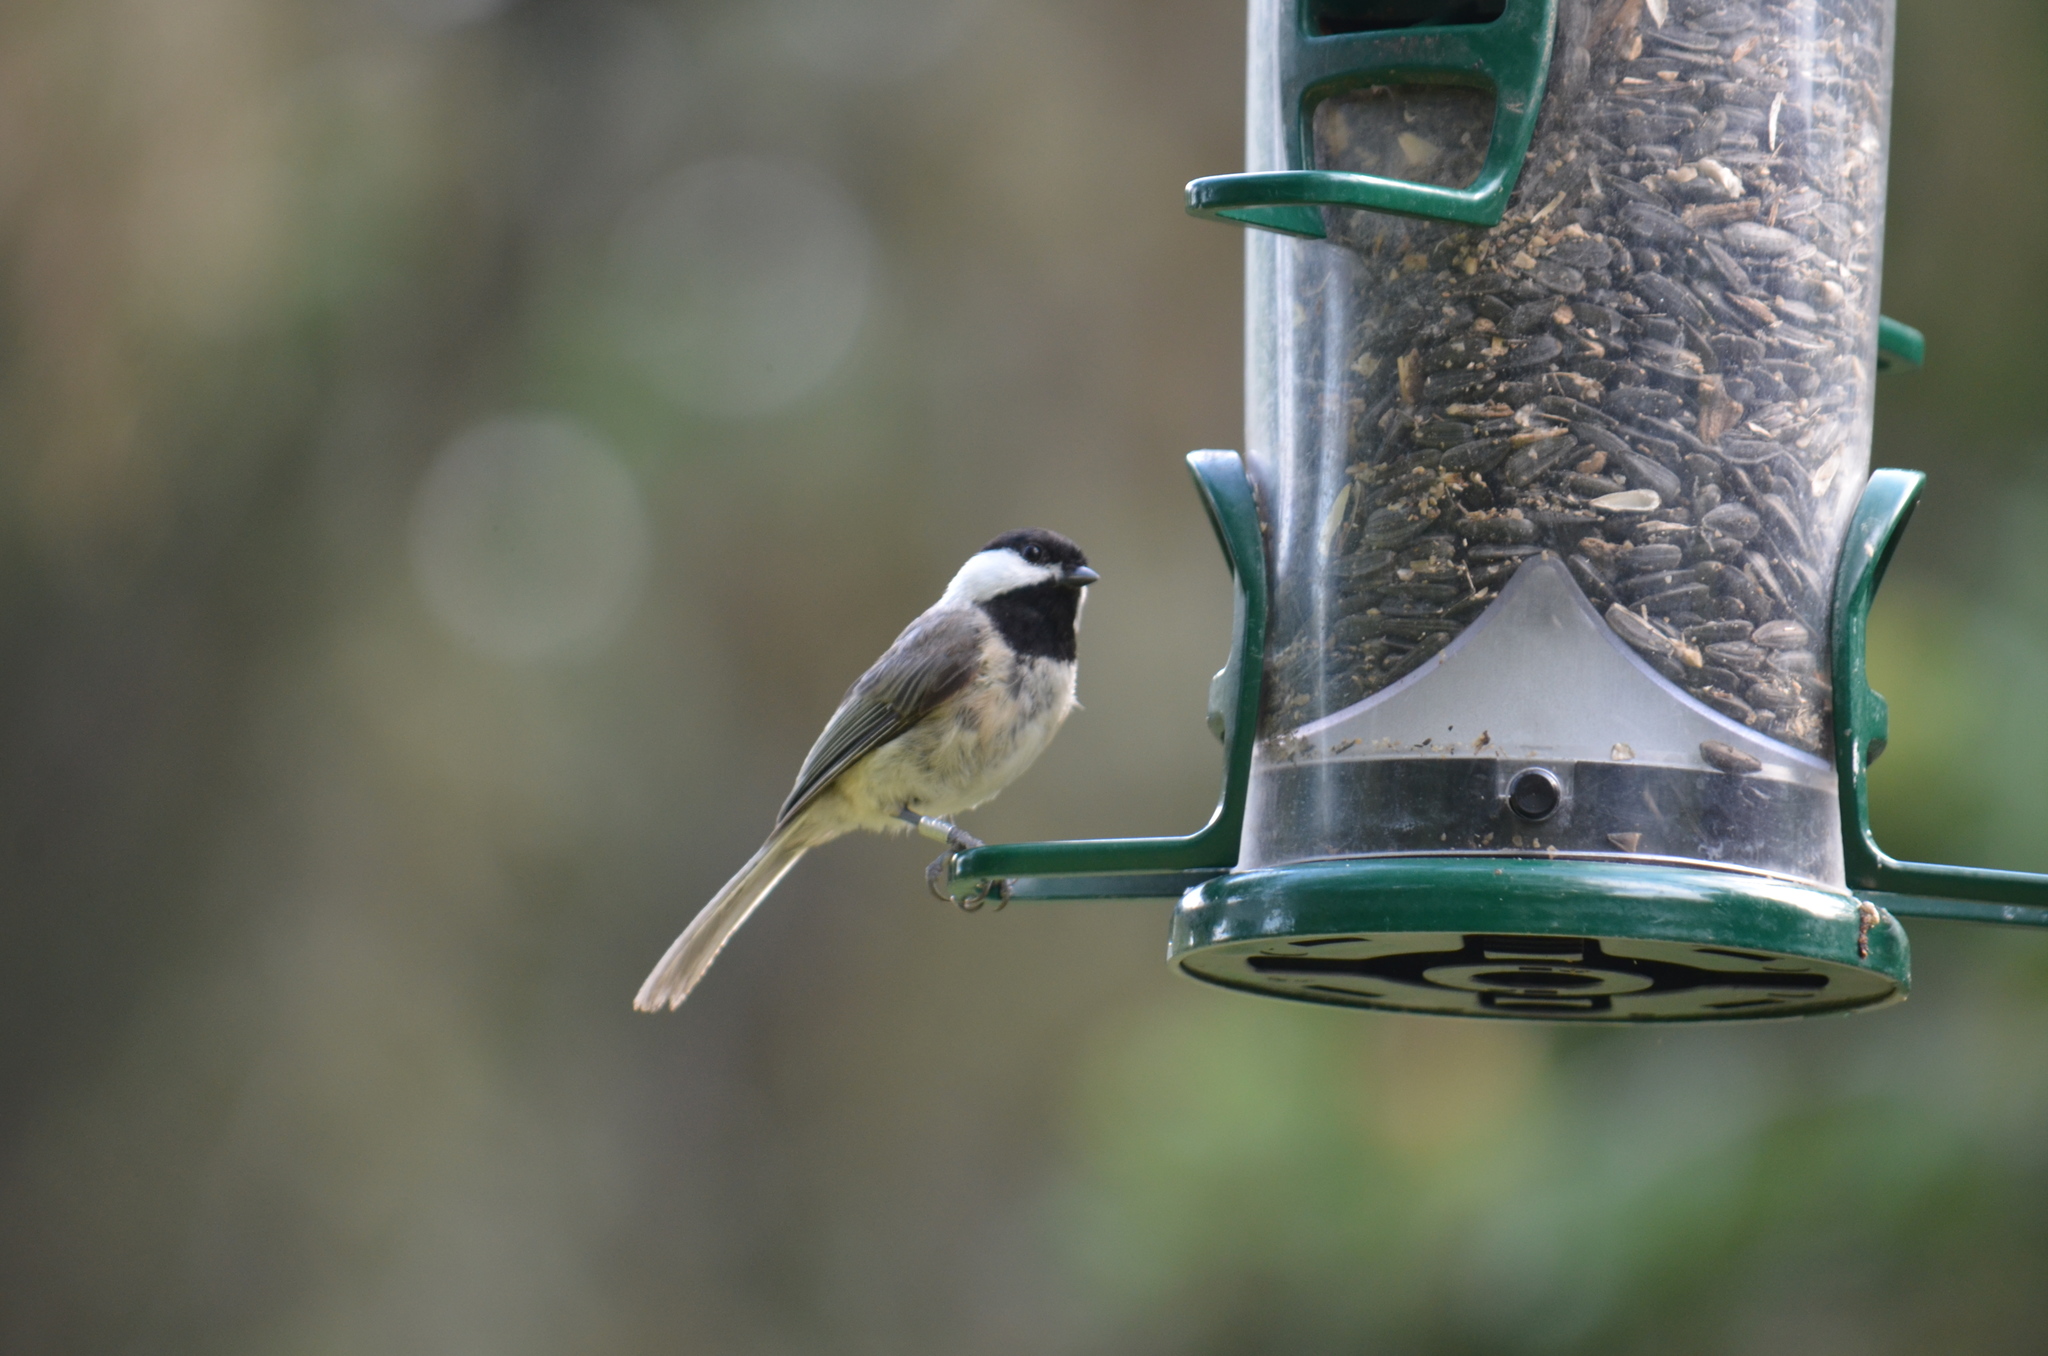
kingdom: Animalia
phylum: Chordata
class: Aves
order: Passeriformes
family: Paridae
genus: Poecile
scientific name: Poecile carolinensis
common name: Carolina chickadee
